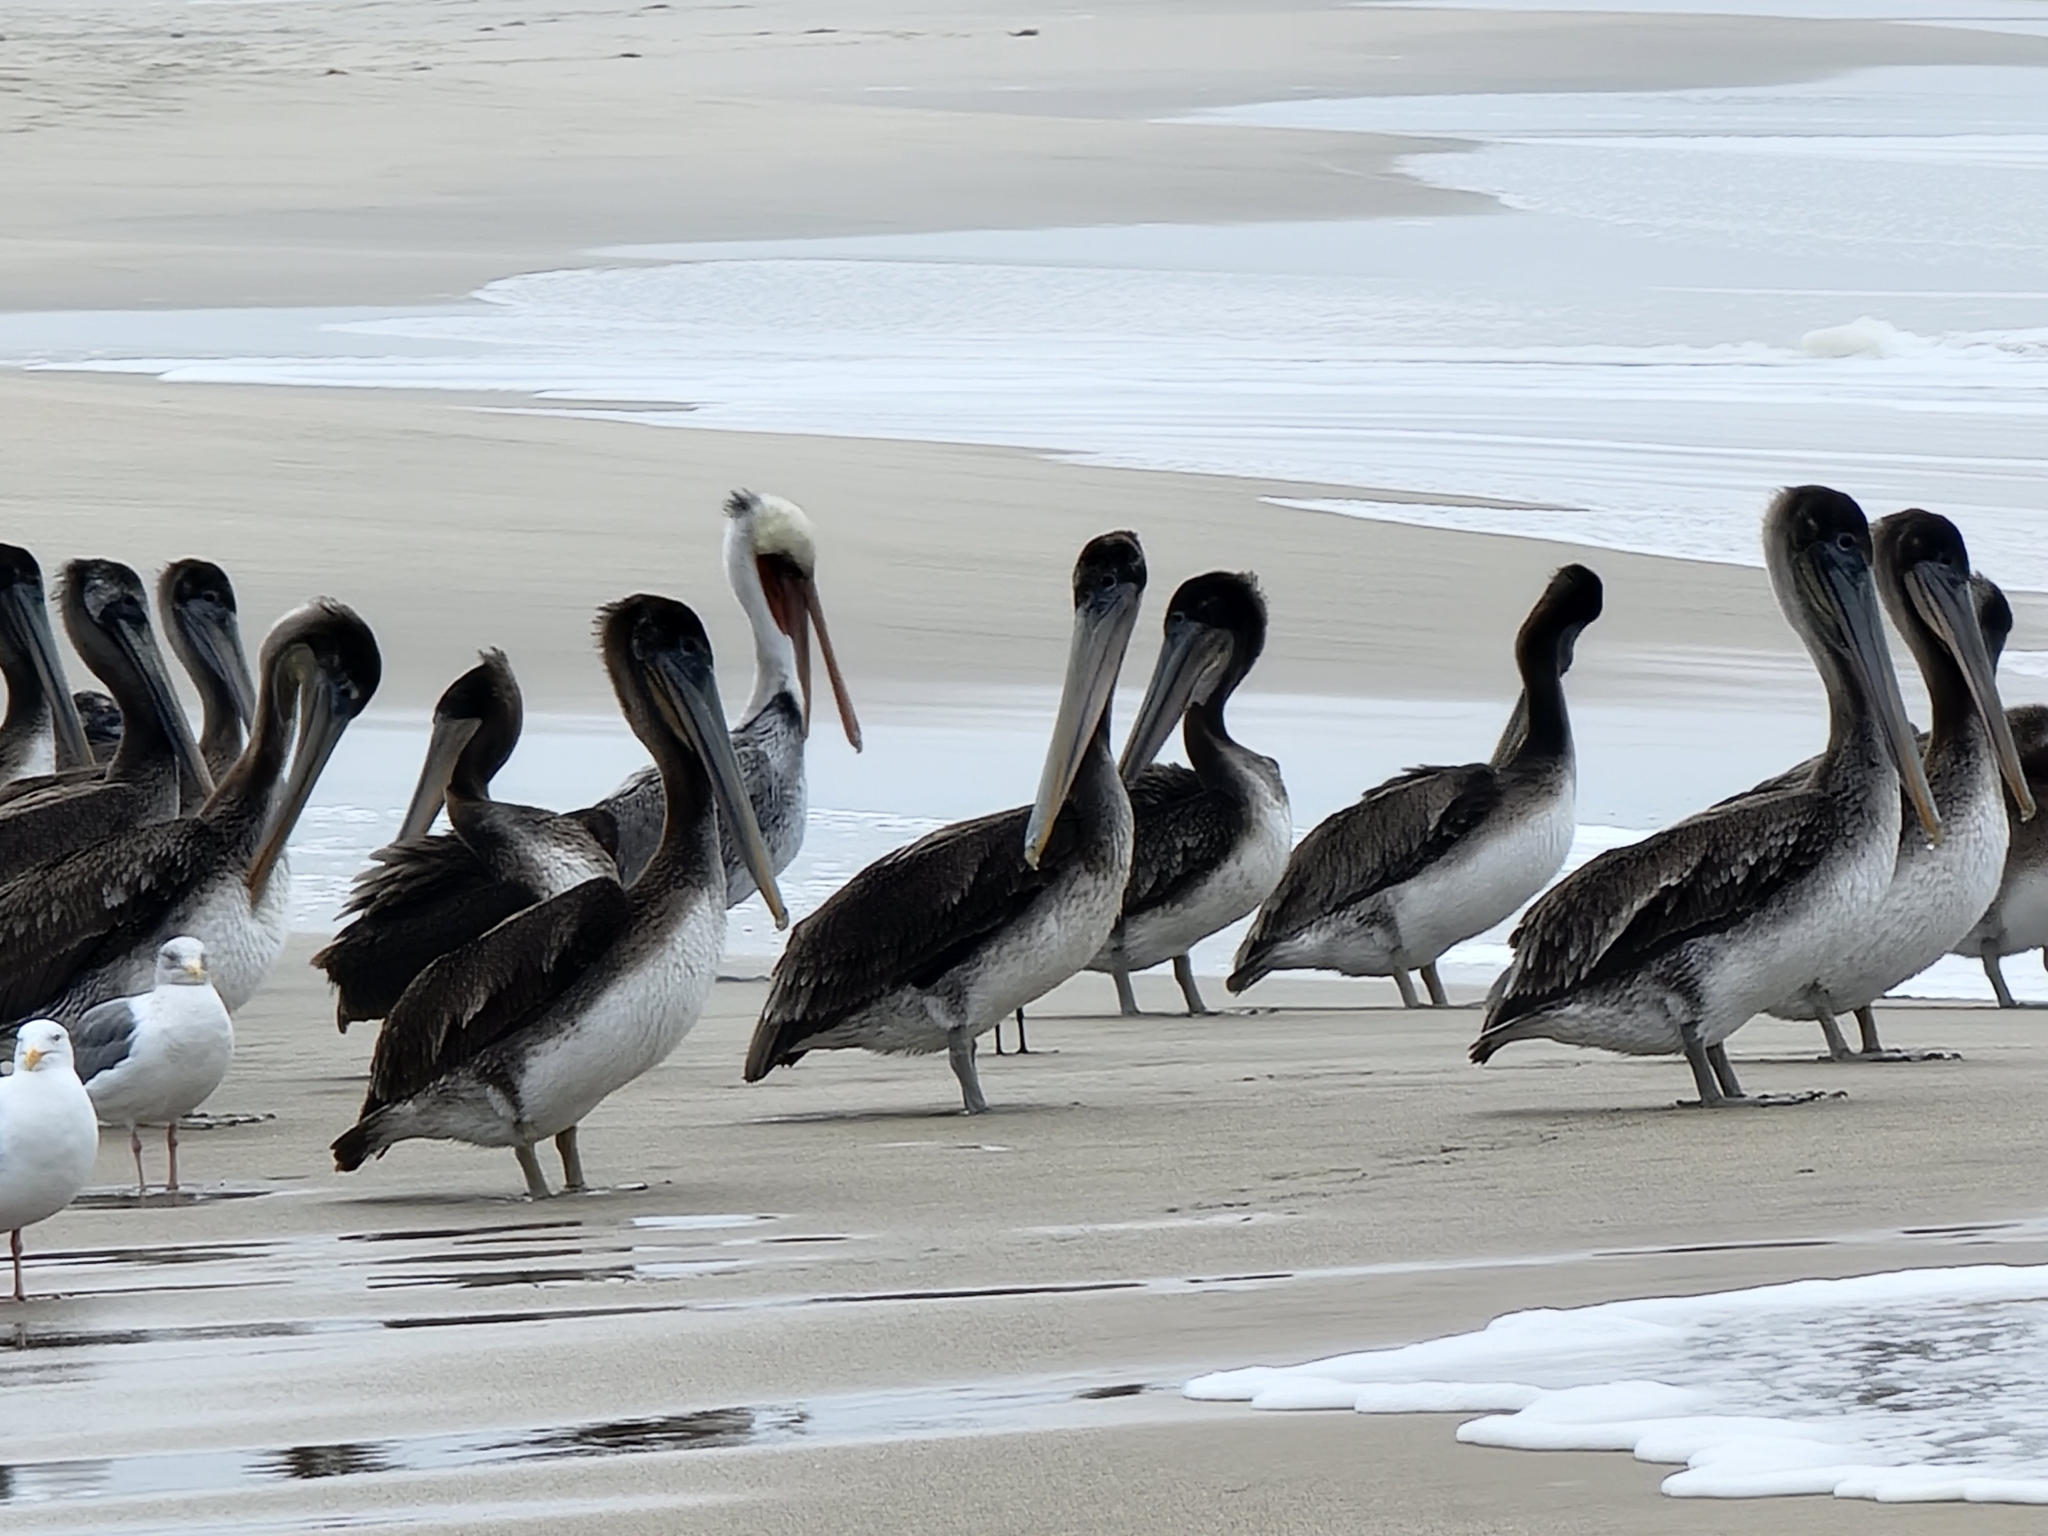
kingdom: Animalia
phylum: Chordata
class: Aves
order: Pelecaniformes
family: Pelecanidae
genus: Pelecanus
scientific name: Pelecanus occidentalis
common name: Brown pelican
